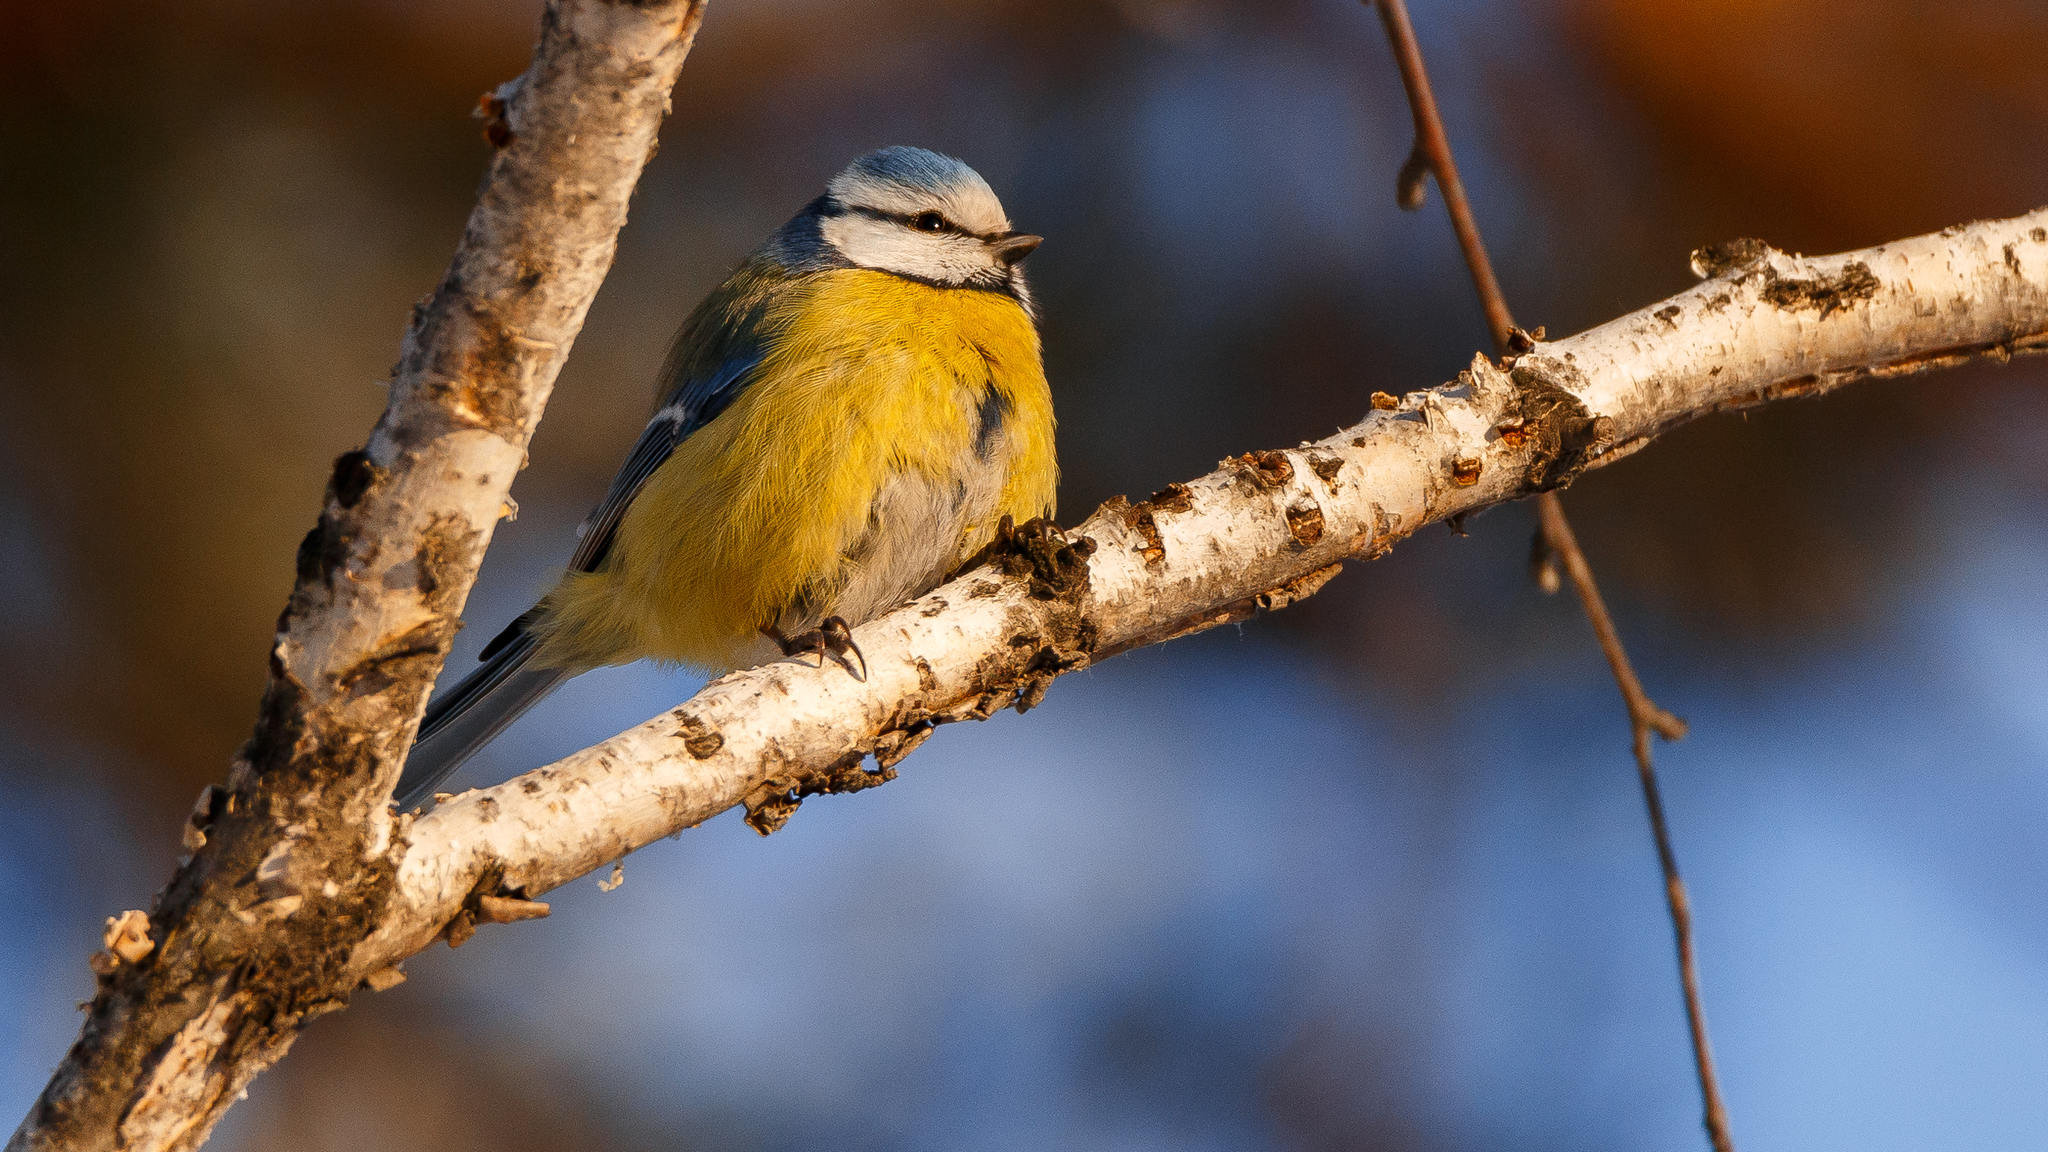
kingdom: Animalia
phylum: Chordata
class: Aves
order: Passeriformes
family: Paridae
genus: Cyanistes
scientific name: Cyanistes caeruleus
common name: Eurasian blue tit
